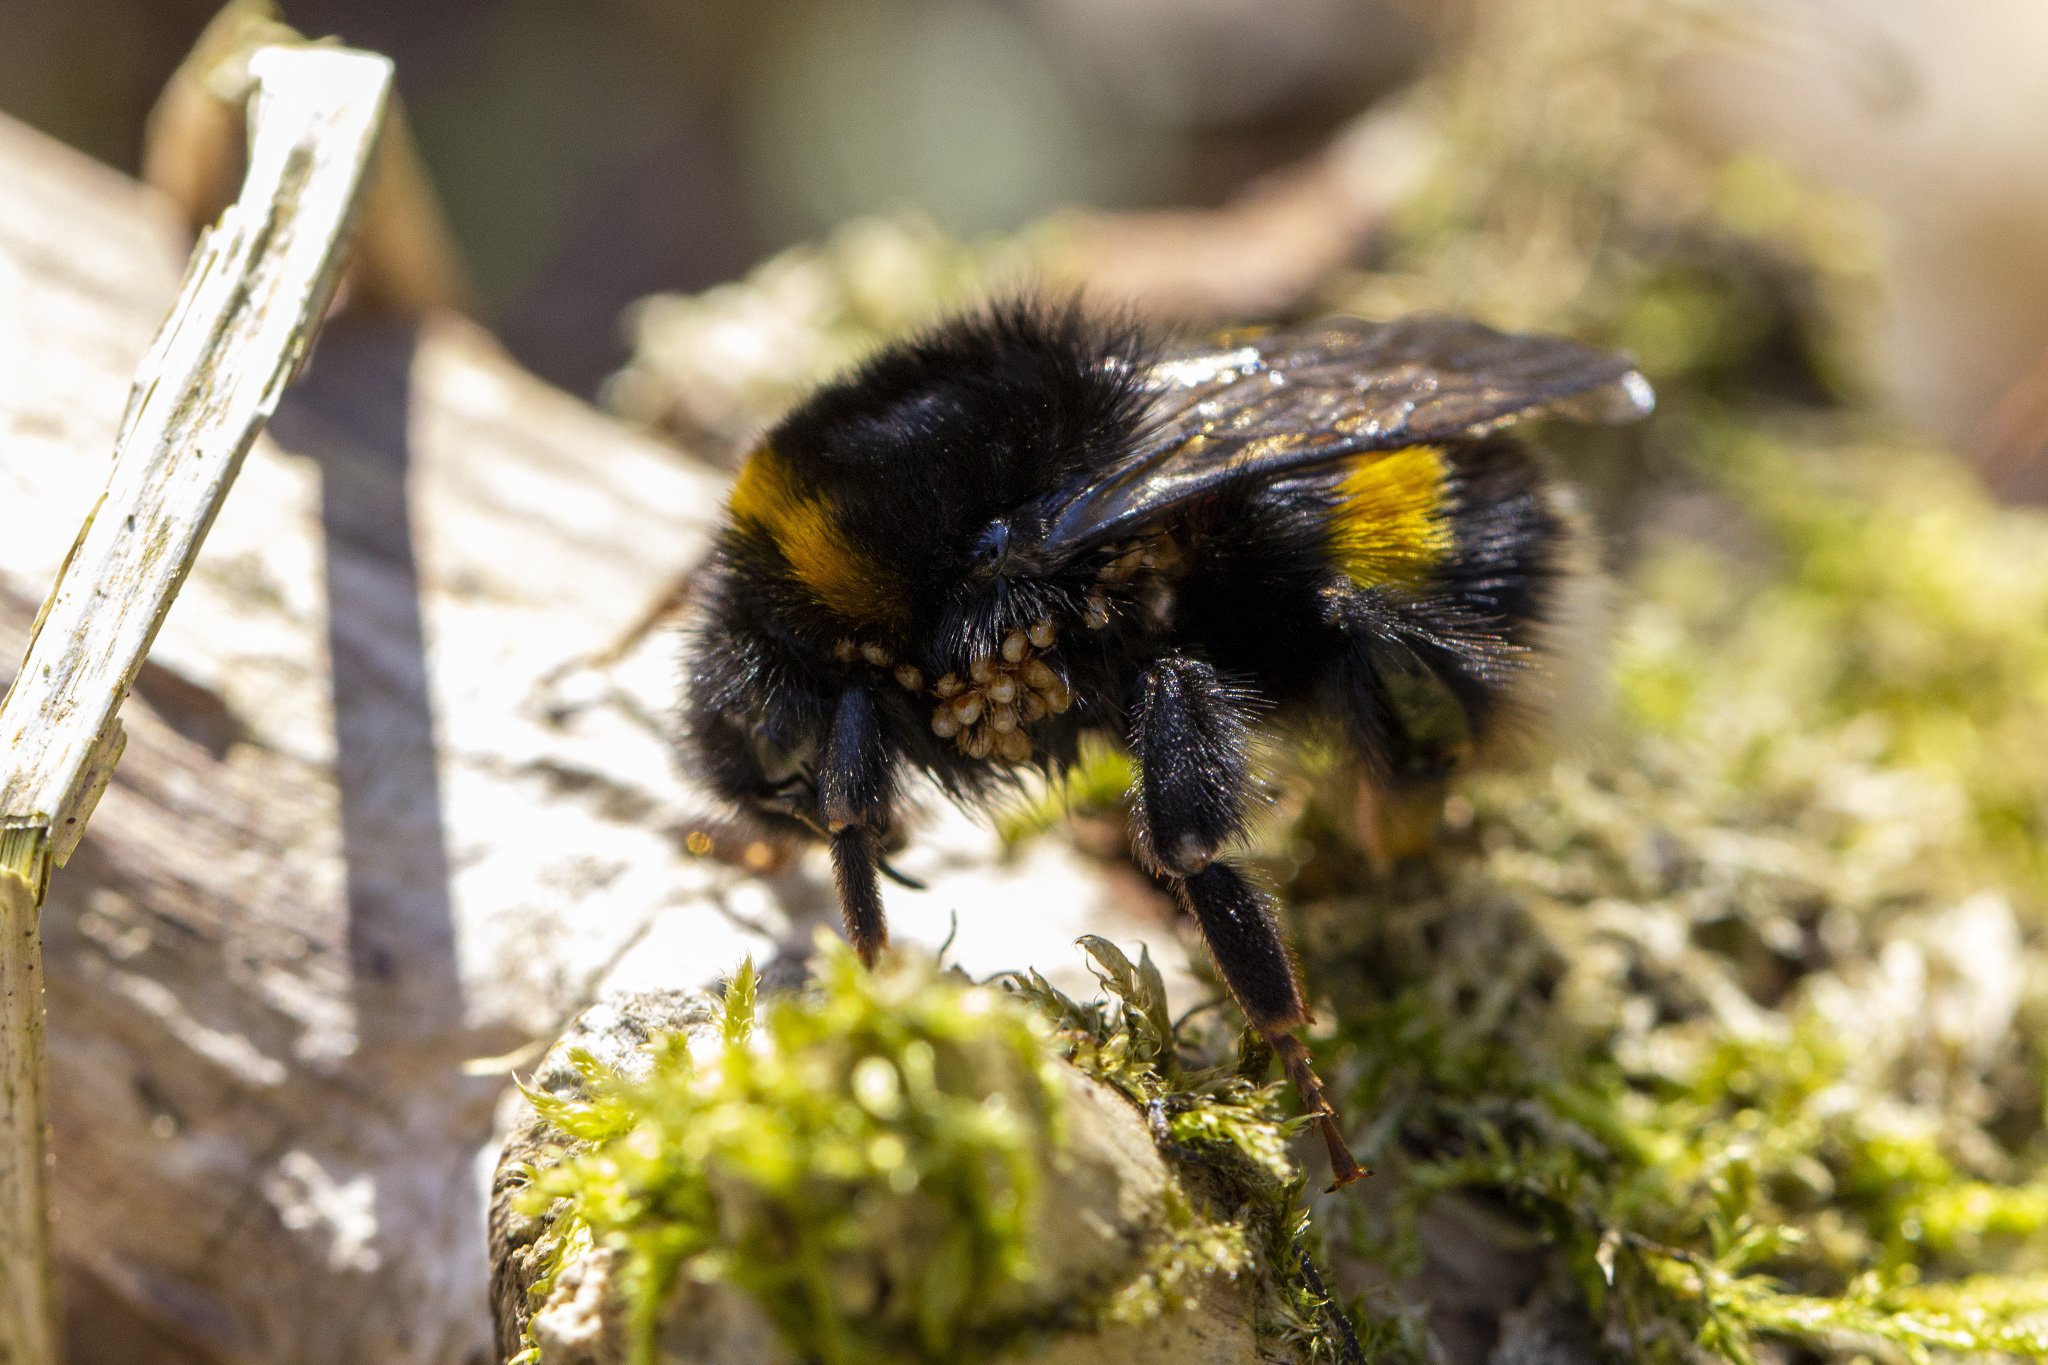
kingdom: Animalia
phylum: Arthropoda
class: Insecta
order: Hymenoptera
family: Apidae
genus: Bombus
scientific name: Bombus terrestris
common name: Buff-tailed bumblebee
